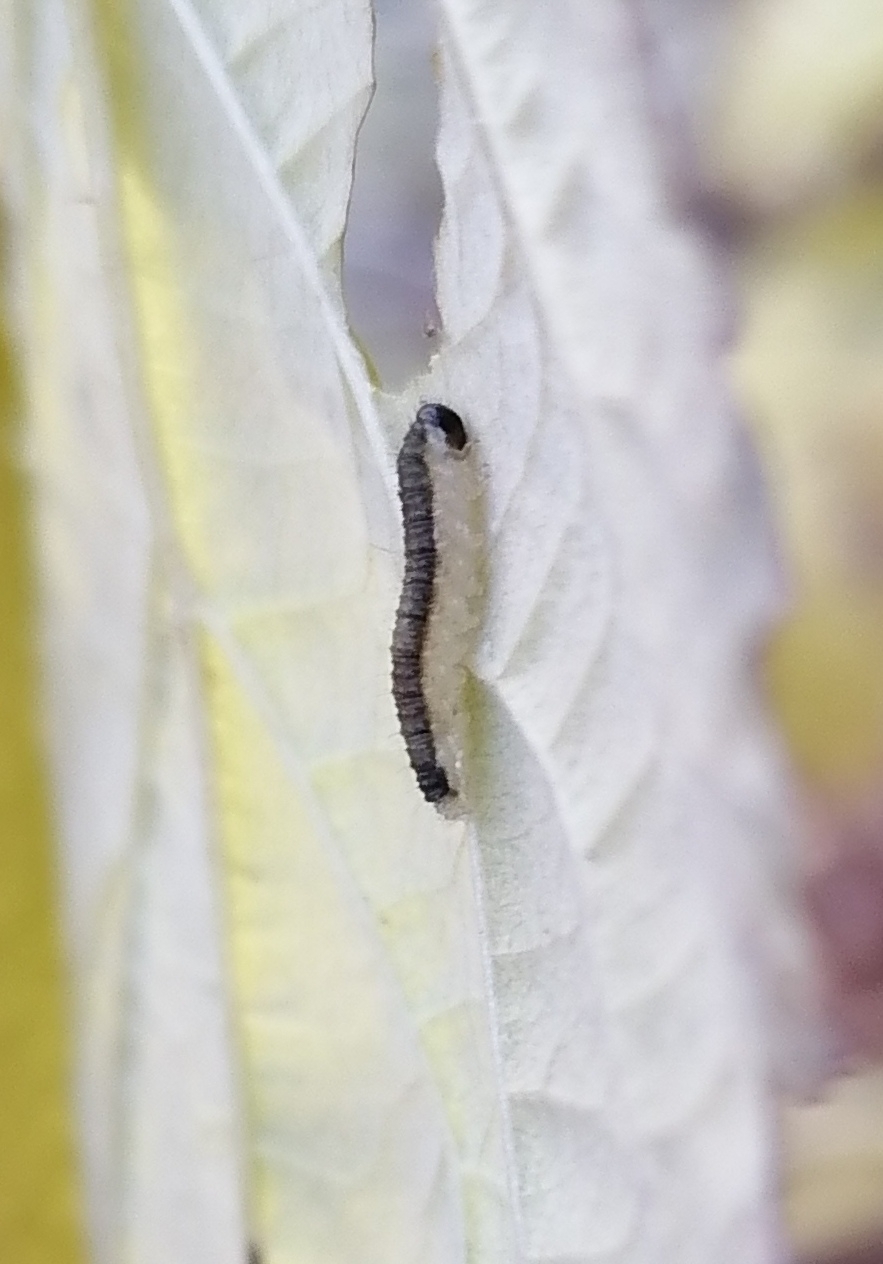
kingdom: Animalia
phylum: Arthropoda
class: Insecta
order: Hymenoptera
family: Tenthredinidae
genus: Cladius
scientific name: Cladius brullei
